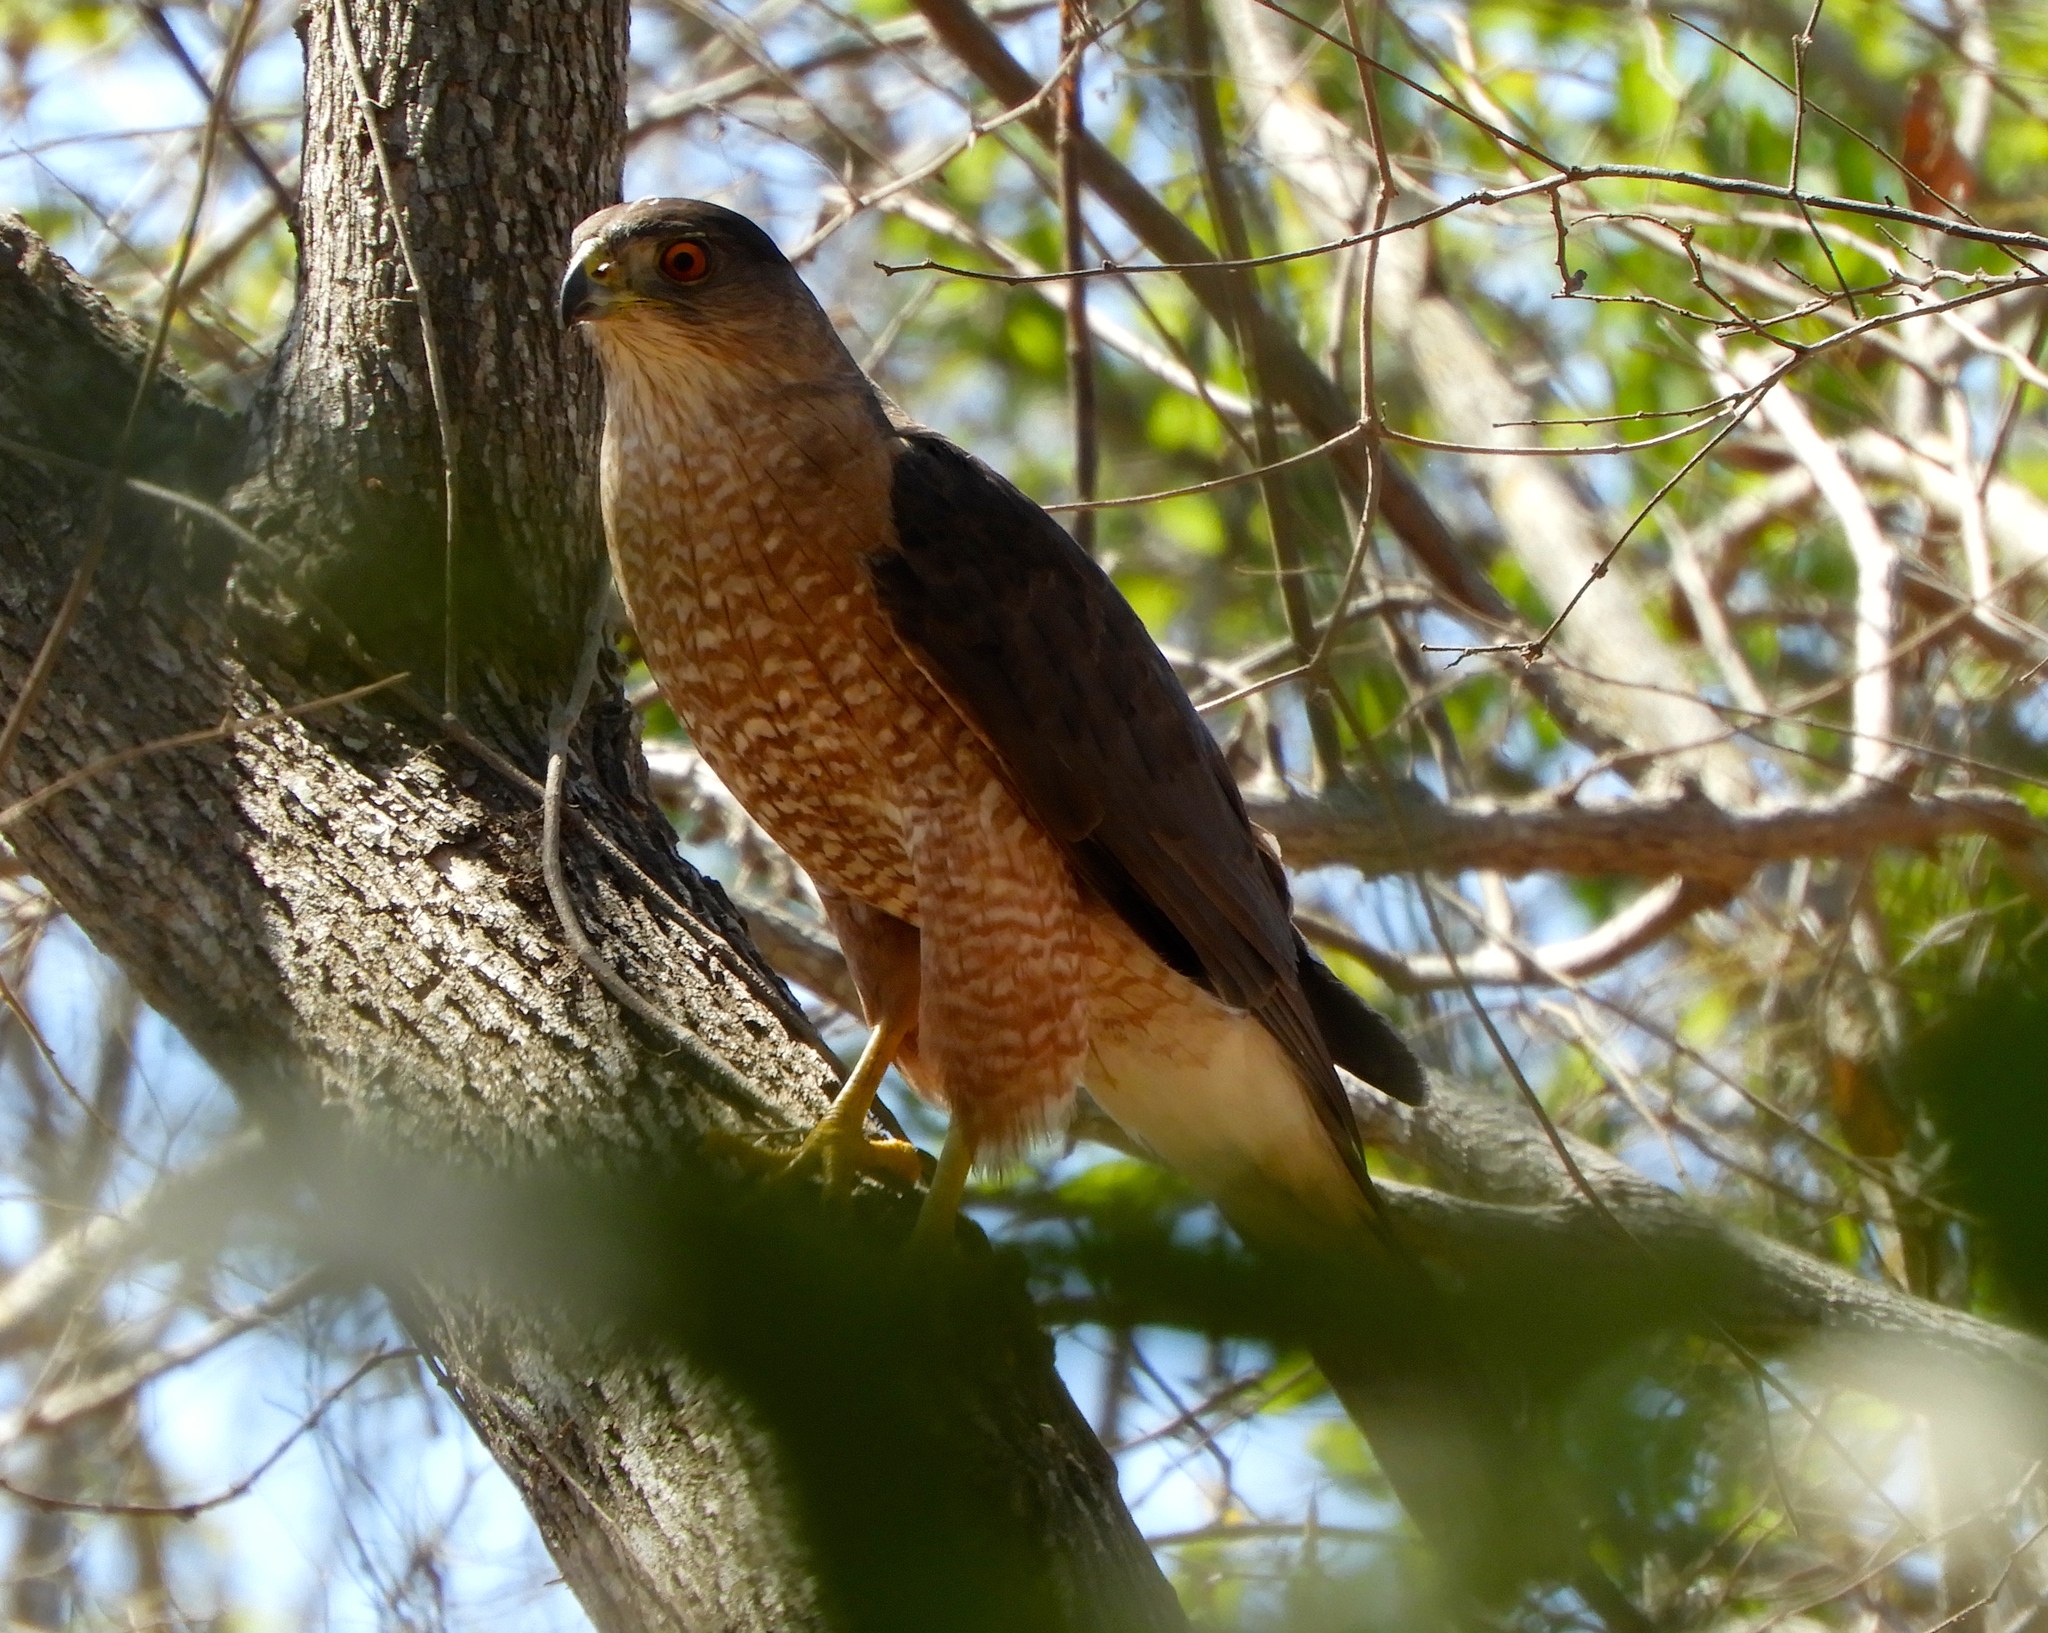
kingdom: Animalia
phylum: Chordata
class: Aves
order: Accipitriformes
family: Accipitridae
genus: Accipiter
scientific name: Accipiter cooperii
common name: Cooper's hawk
